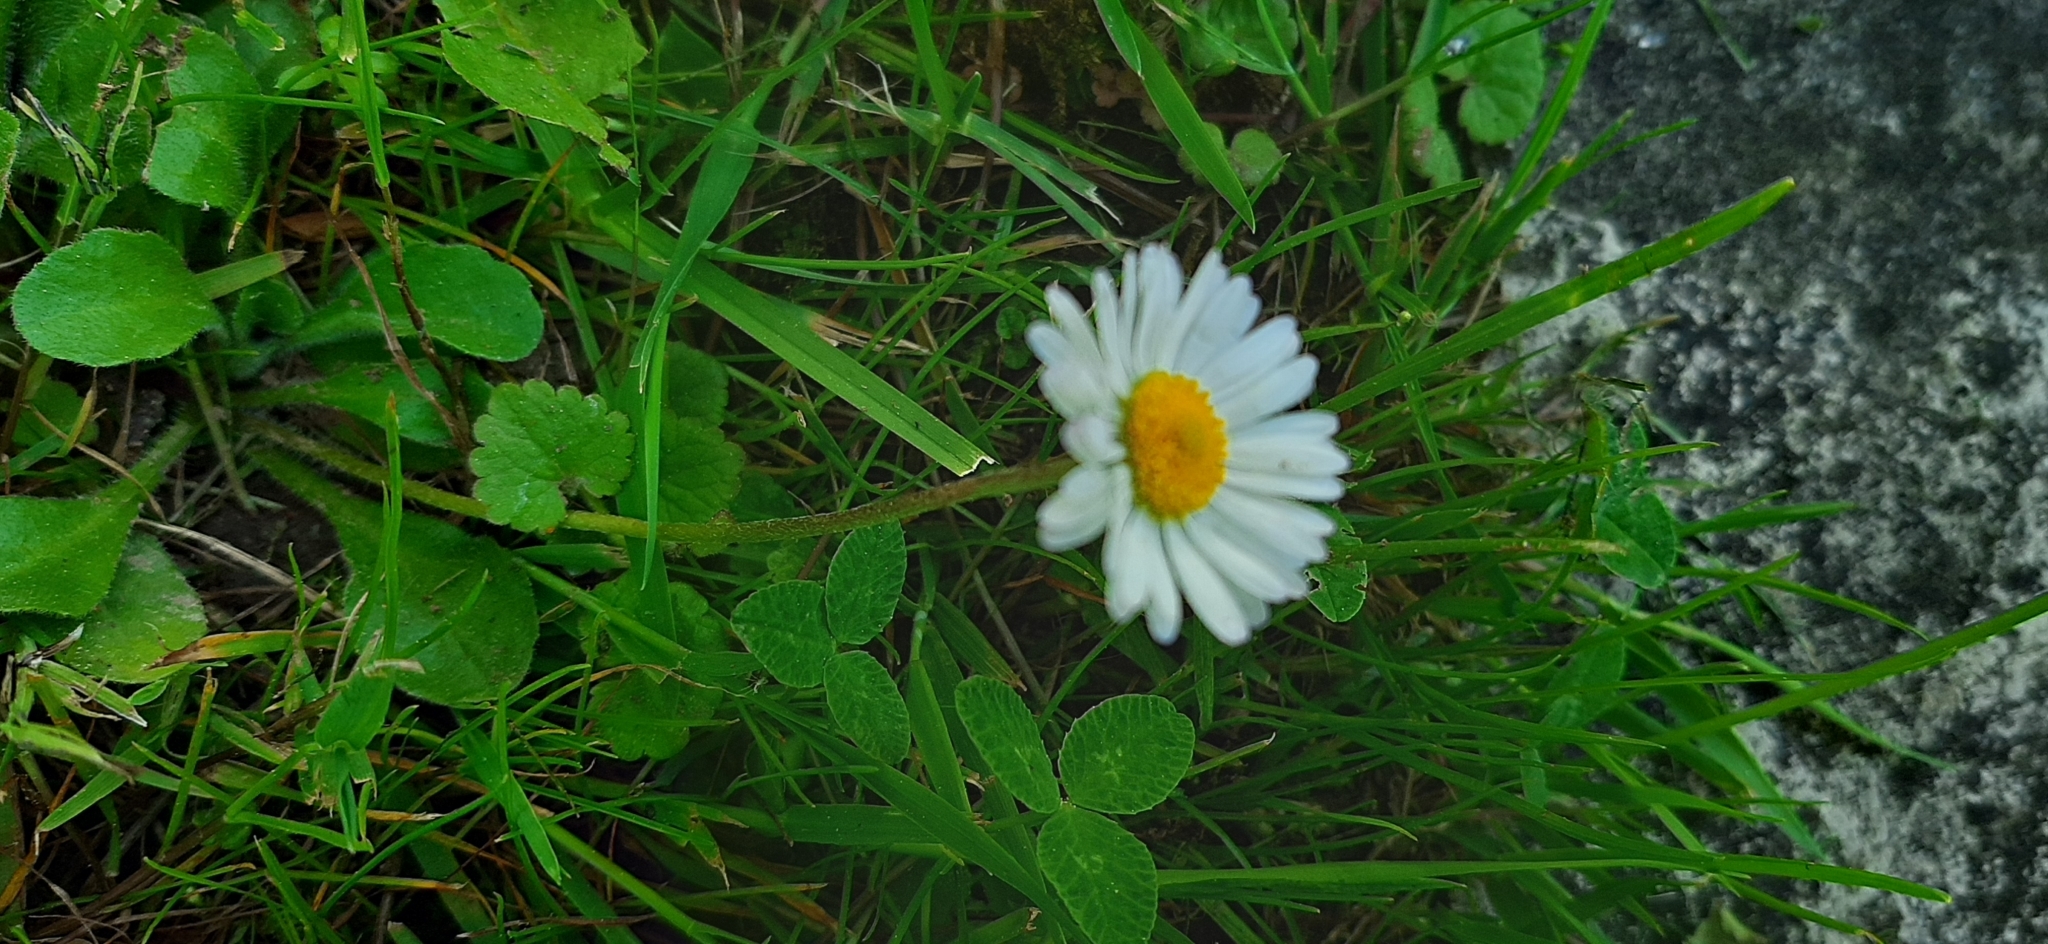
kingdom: Plantae
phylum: Tracheophyta
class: Magnoliopsida
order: Asterales
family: Asteraceae
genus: Bellis
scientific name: Bellis perennis
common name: Lawndaisy
